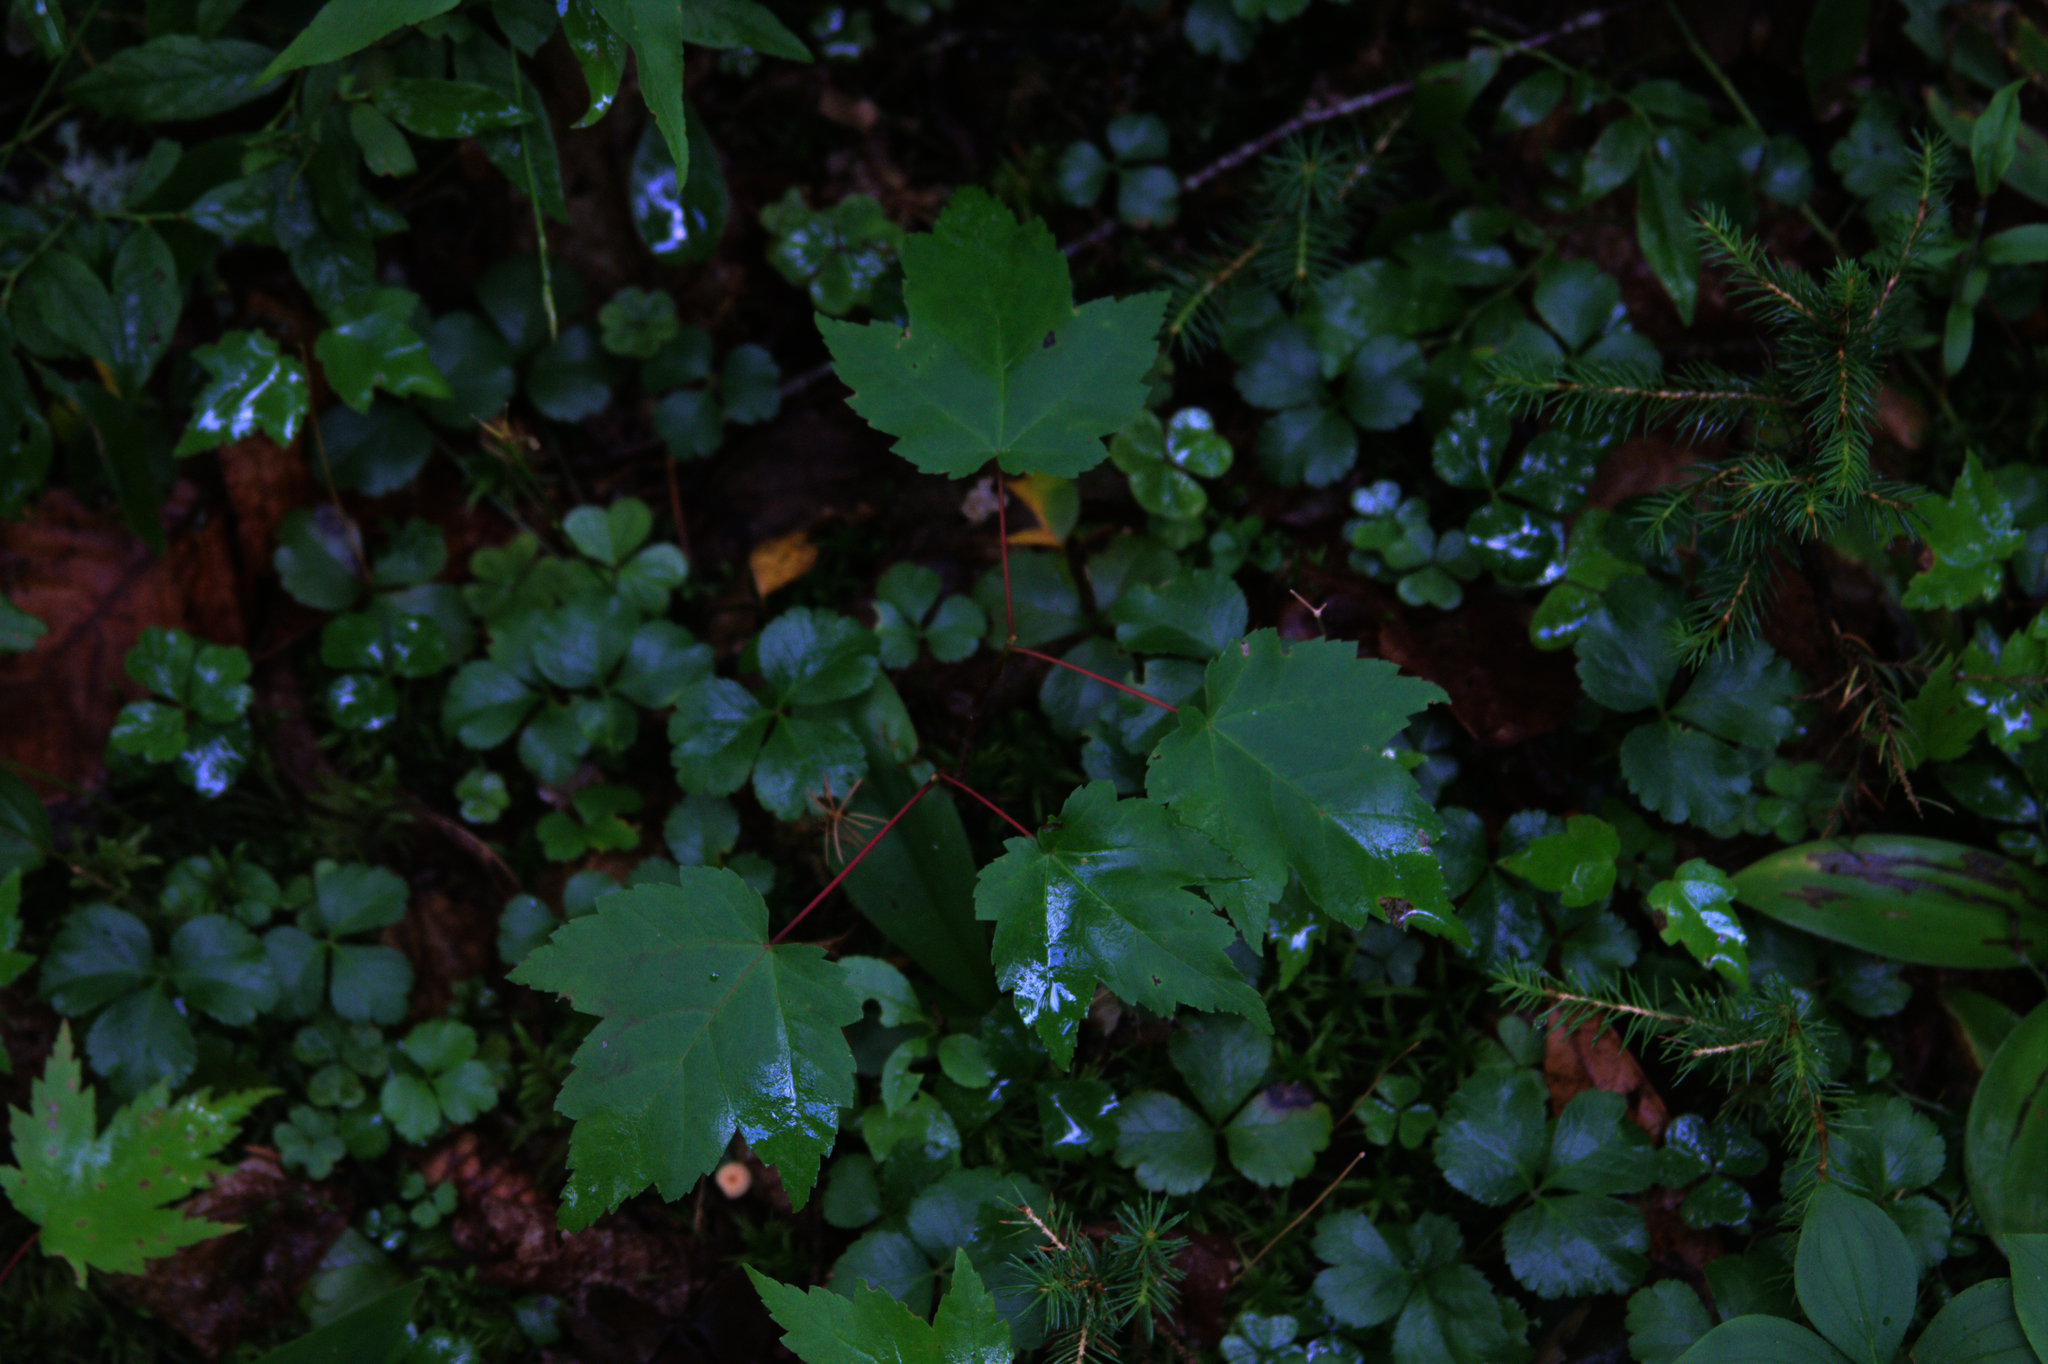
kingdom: Plantae
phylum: Tracheophyta
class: Magnoliopsida
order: Ranunculales
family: Ranunculaceae
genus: Coptis
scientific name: Coptis trifolia
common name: Canker-root
